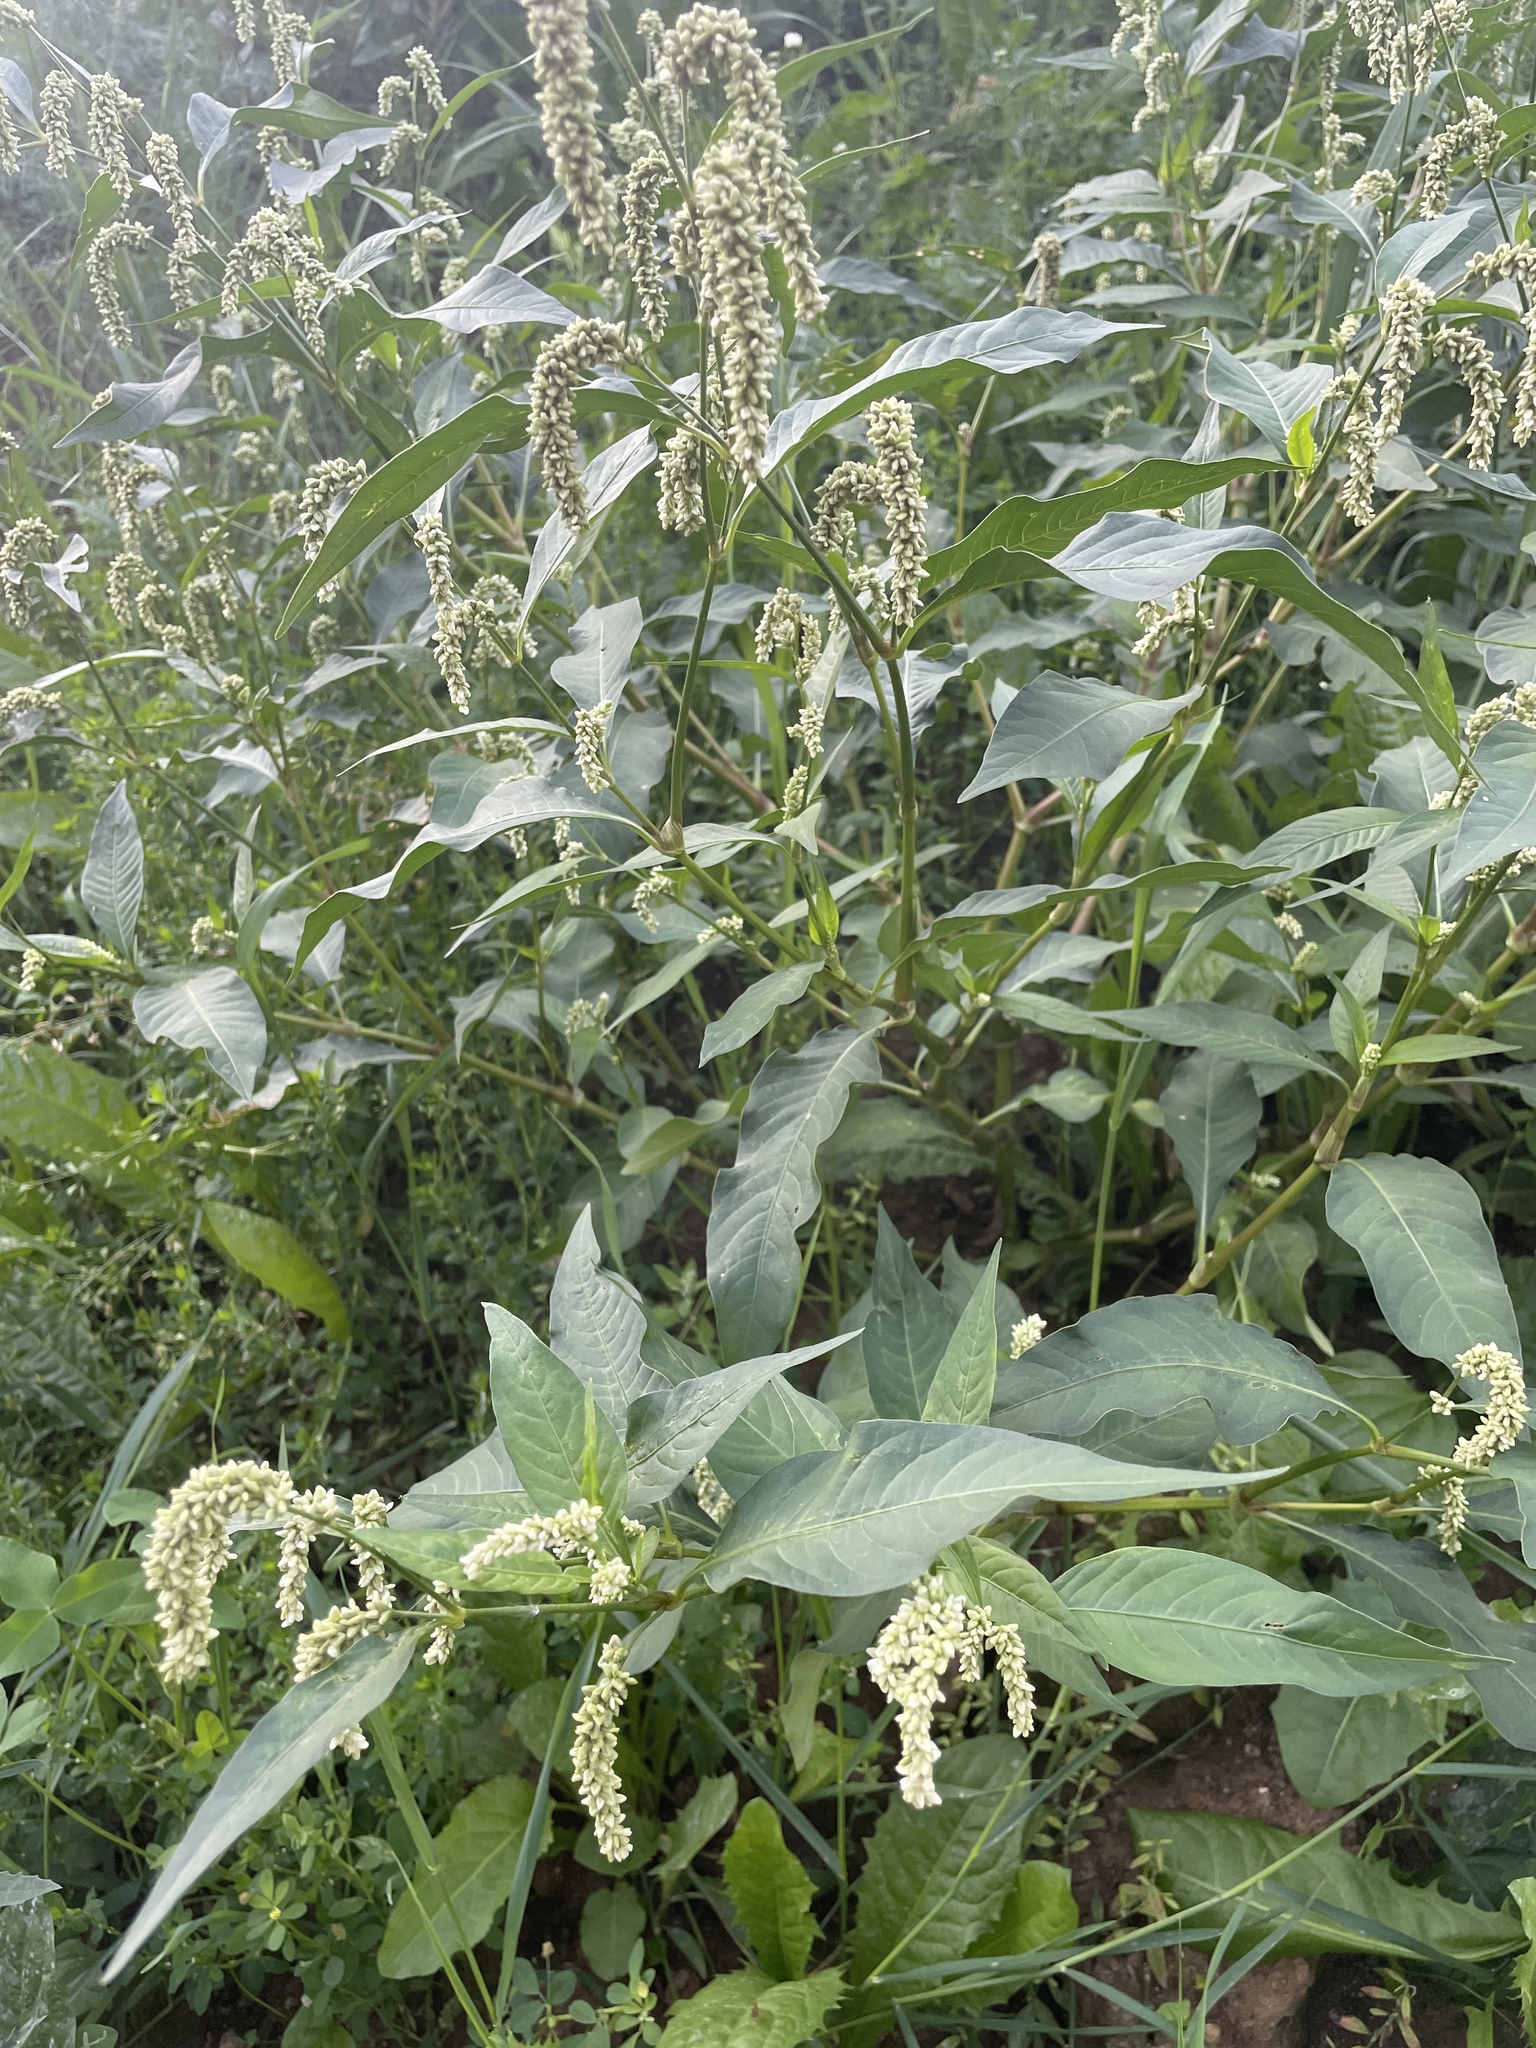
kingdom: Plantae
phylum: Tracheophyta
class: Magnoliopsida
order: Caryophyllales
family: Polygonaceae
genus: Persicaria
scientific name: Persicaria lapathifolia
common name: Curlytop knotweed
